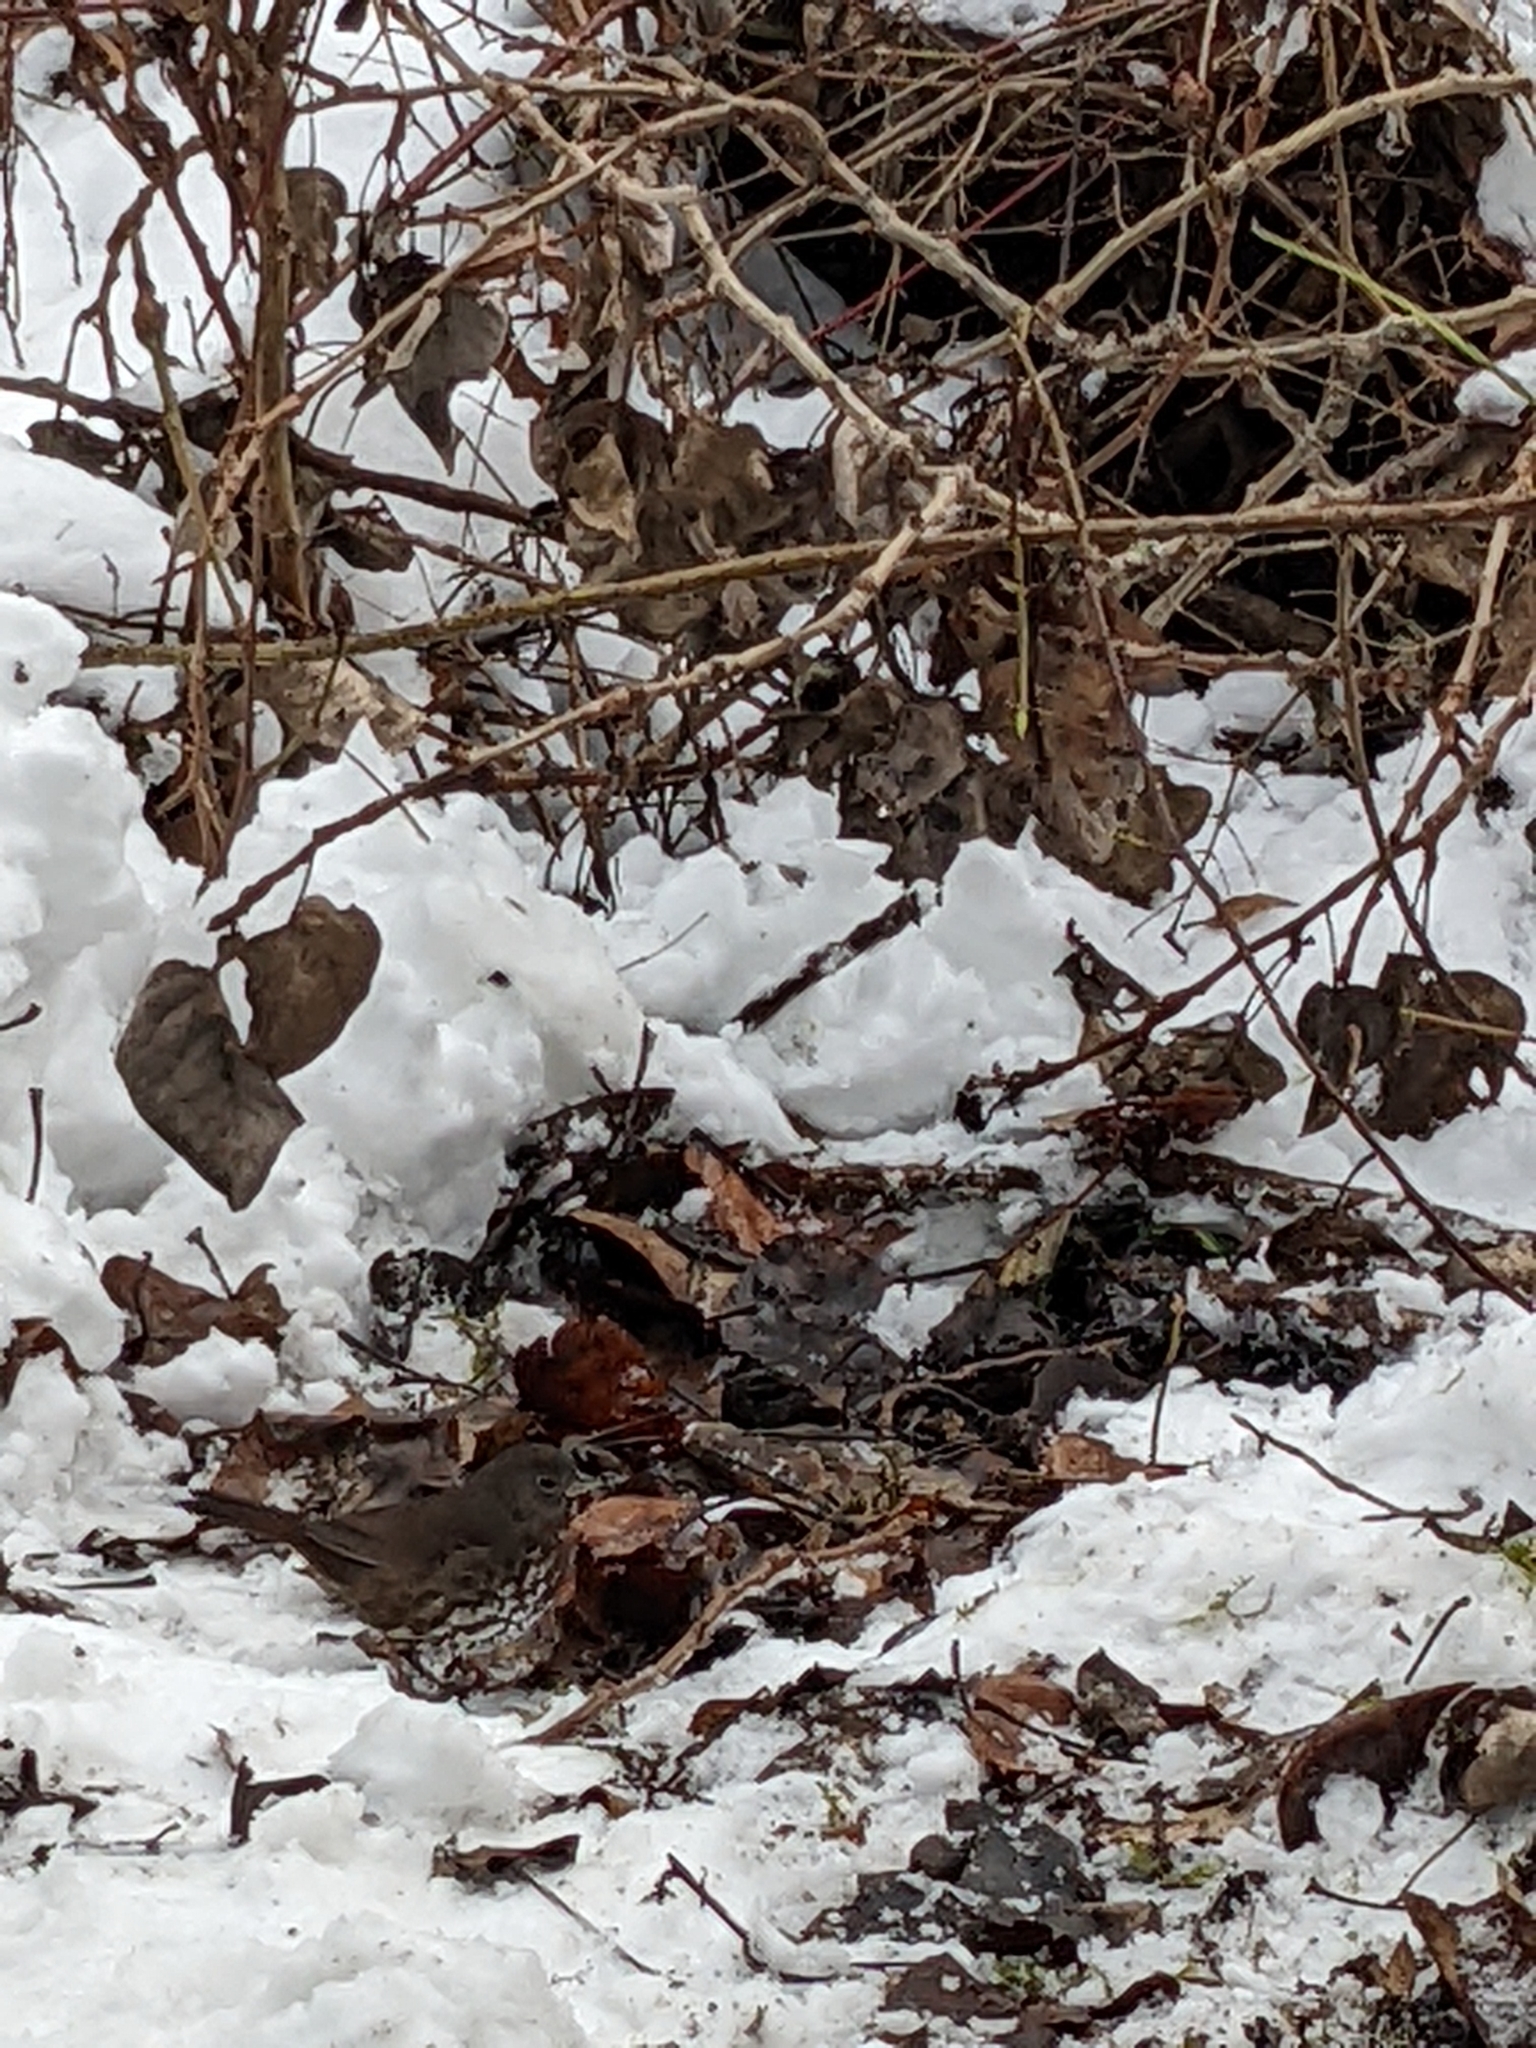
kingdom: Animalia
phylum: Chordata
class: Aves
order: Passeriformes
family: Passerellidae
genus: Passerella
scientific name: Passerella iliaca
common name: Fox sparrow
